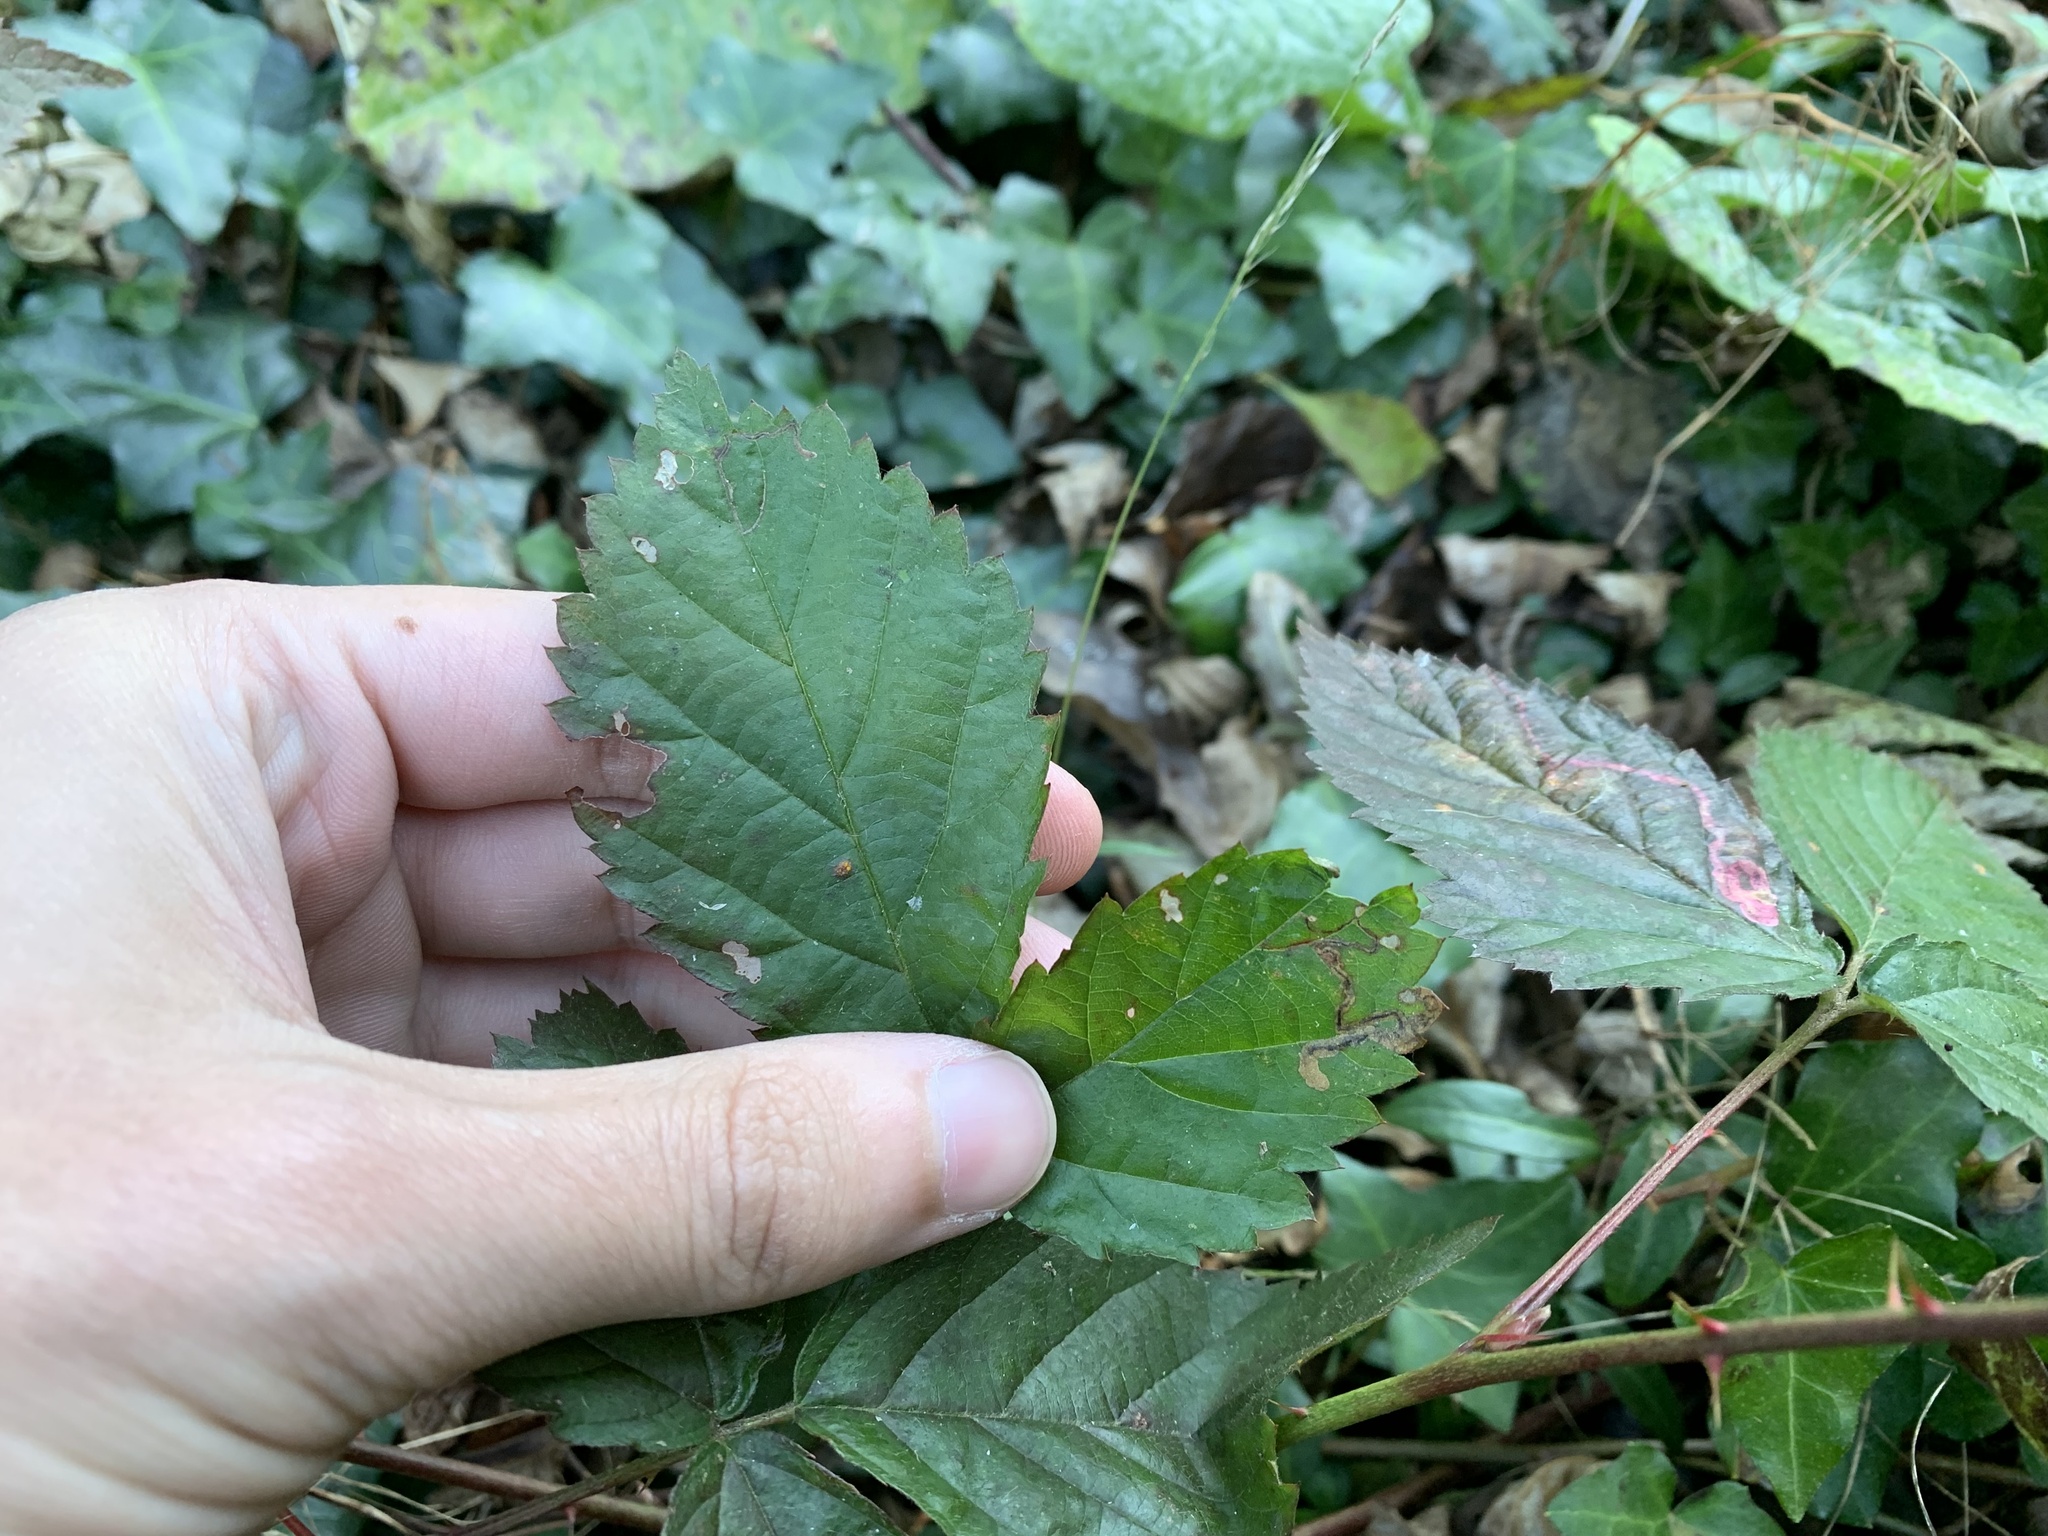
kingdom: Animalia
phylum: Arthropoda
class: Insecta
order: Lepidoptera
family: Nepticulidae
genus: Stigmella
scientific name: Stigmella villosella
